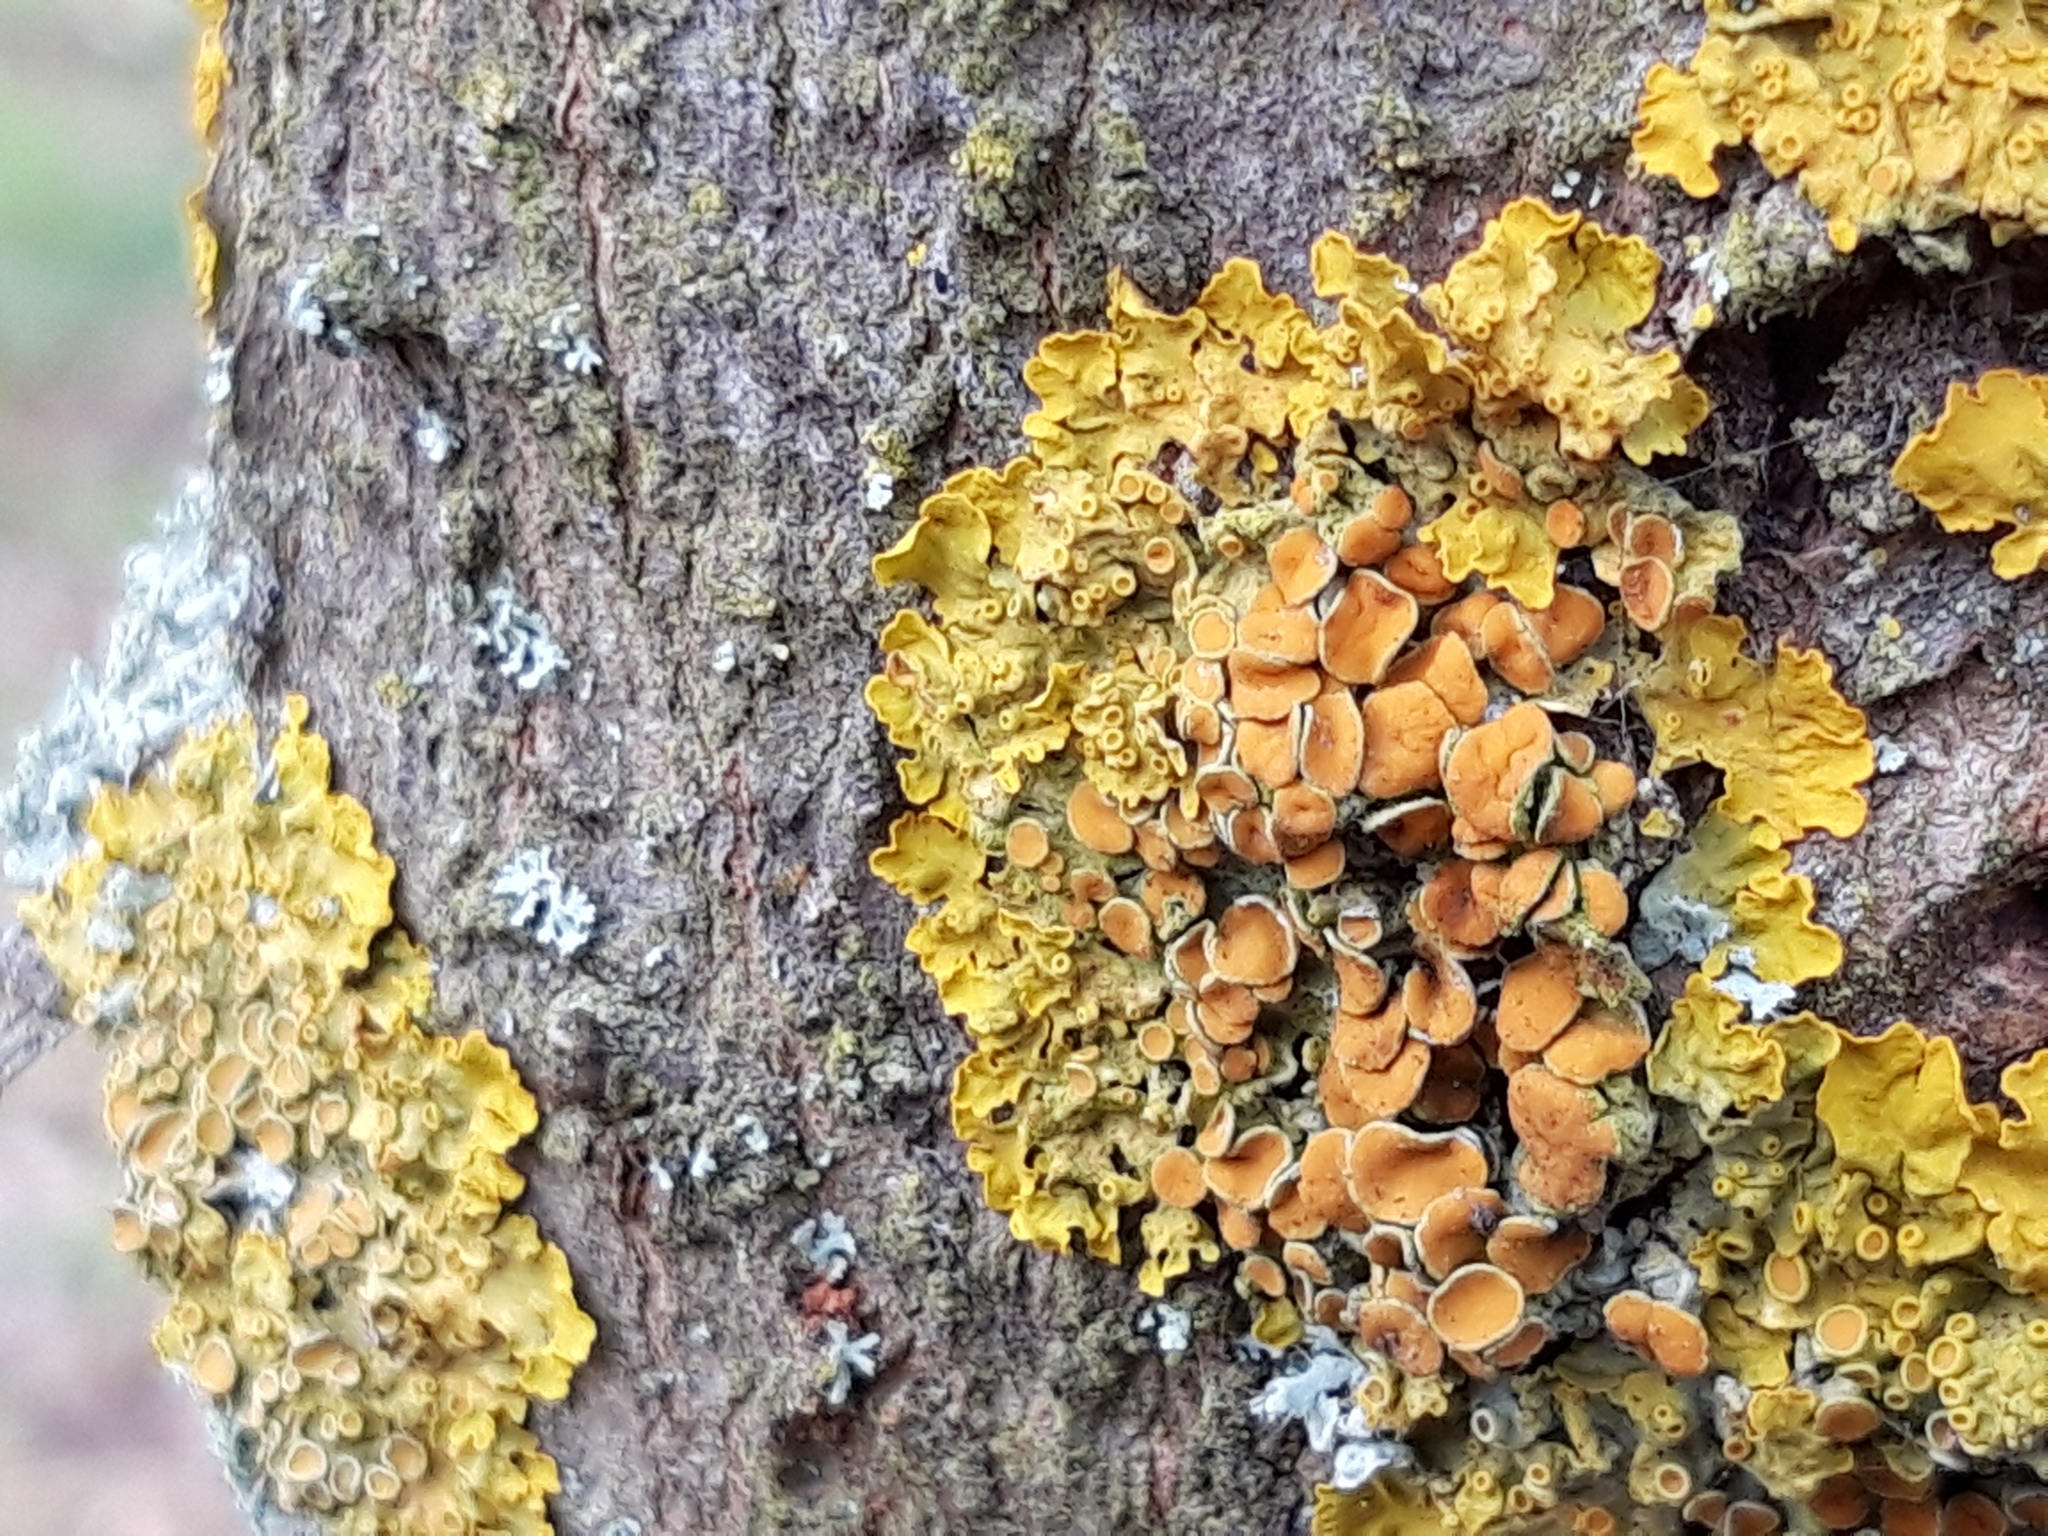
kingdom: Fungi
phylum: Ascomycota
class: Lecanoromycetes
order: Teloschistales
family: Teloschistaceae
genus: Xanthoria
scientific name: Xanthoria parietina
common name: Common orange lichen
